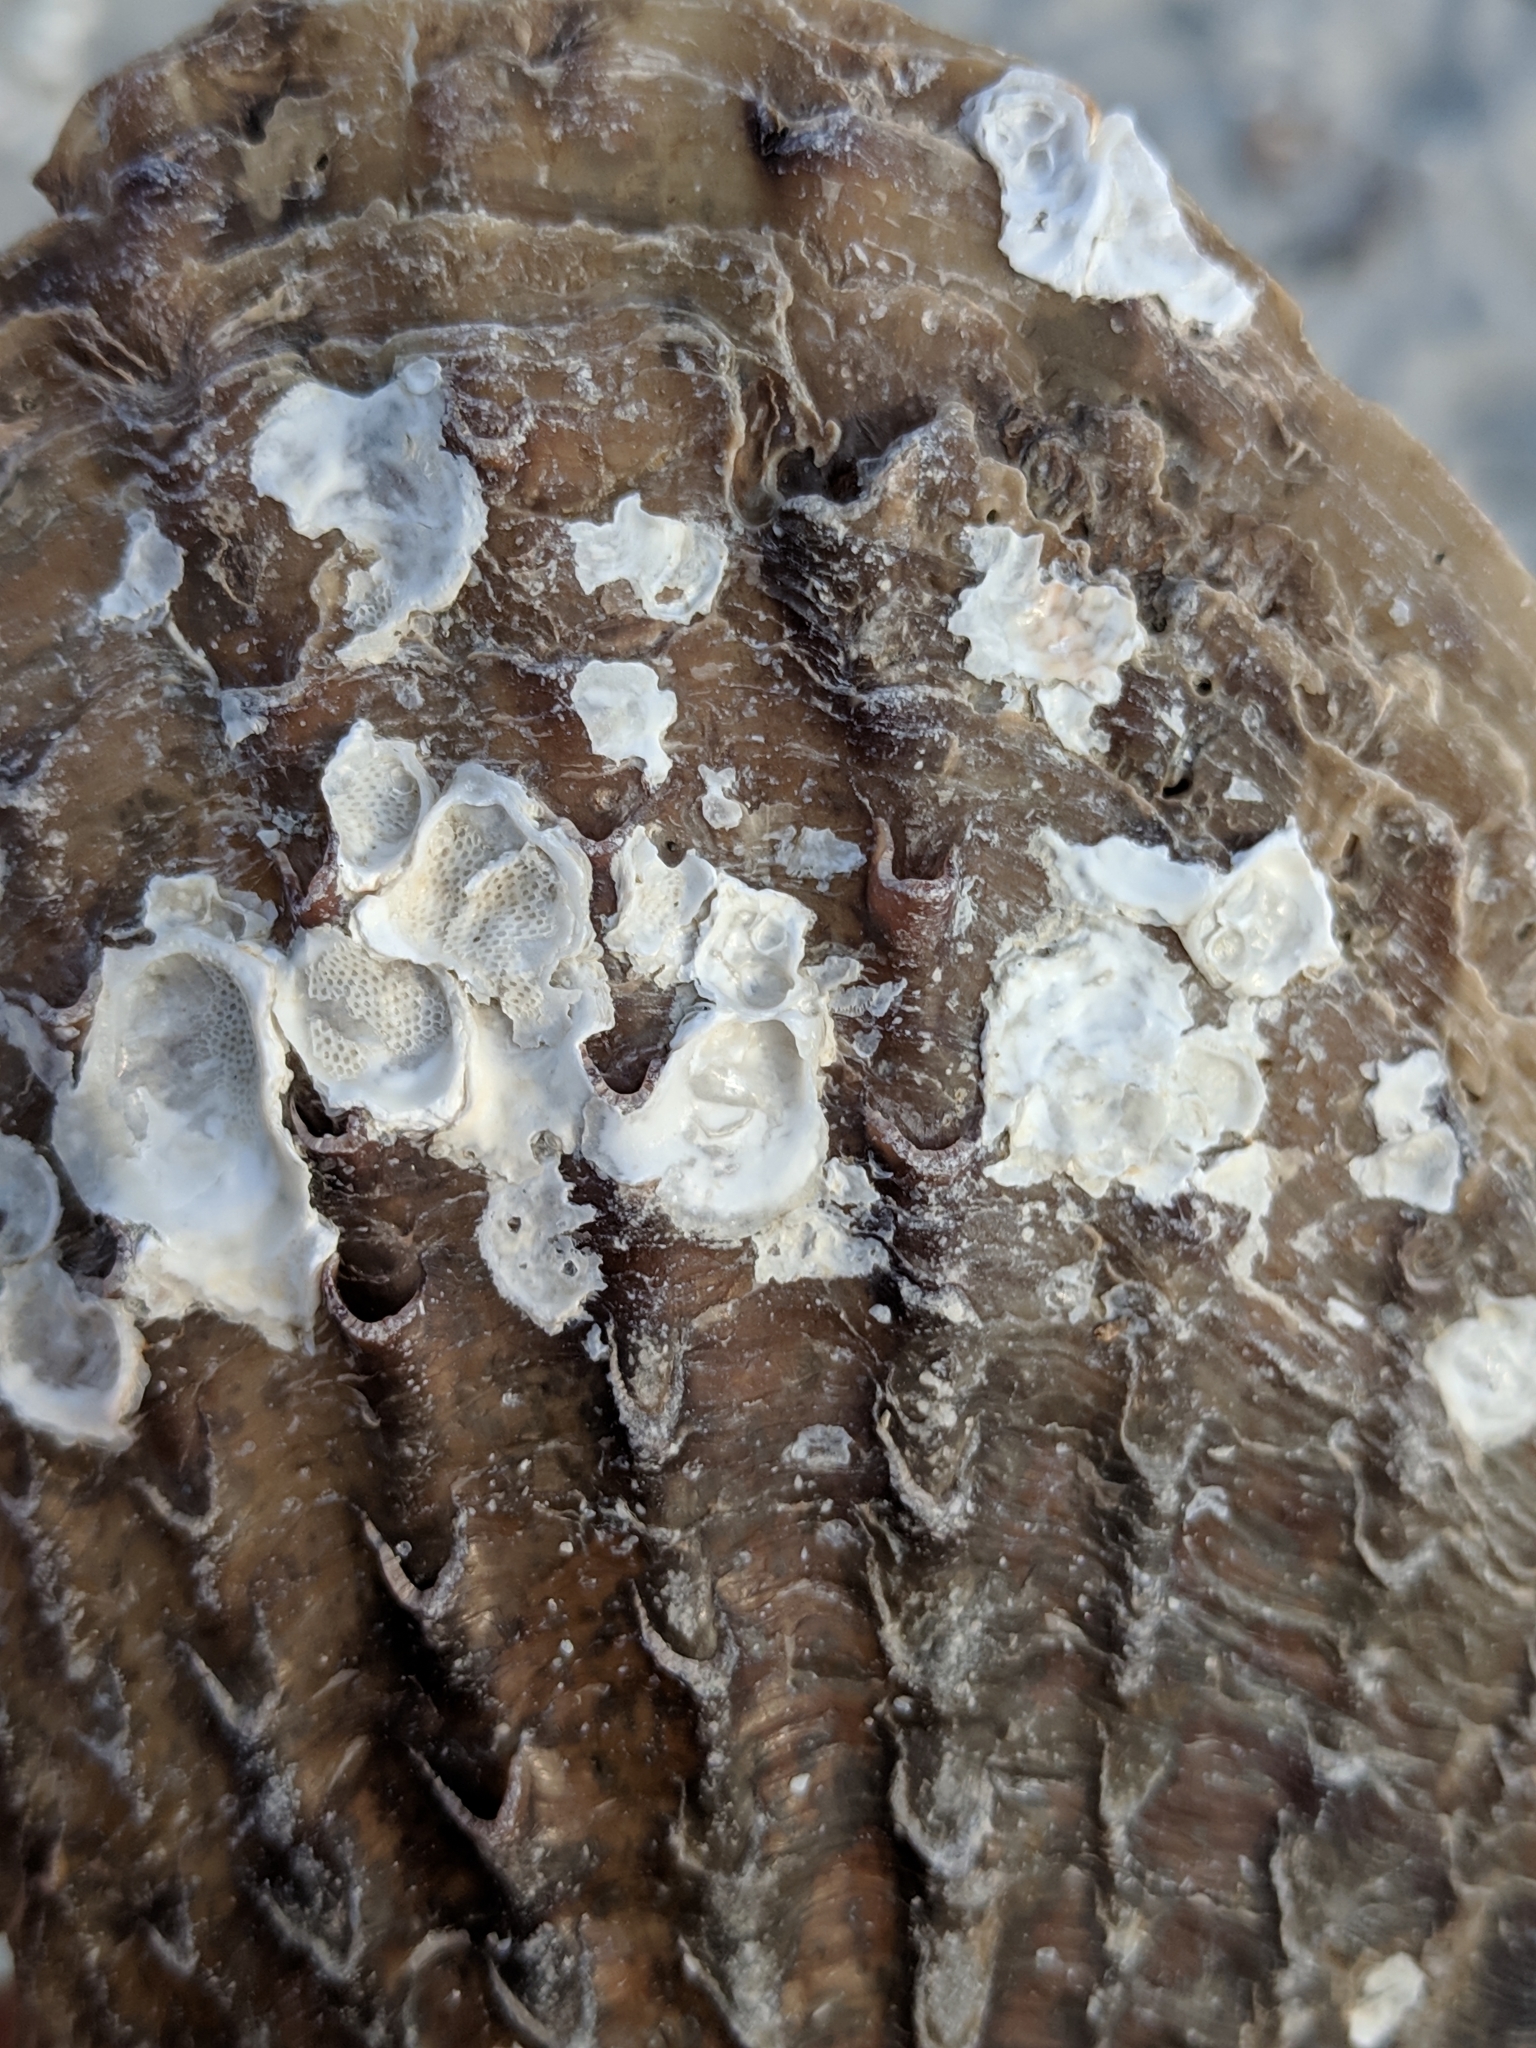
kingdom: Animalia
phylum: Mollusca
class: Bivalvia
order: Ostreida
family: Pinnidae
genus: Atrina
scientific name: Atrina rigida
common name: Stiff penshell
